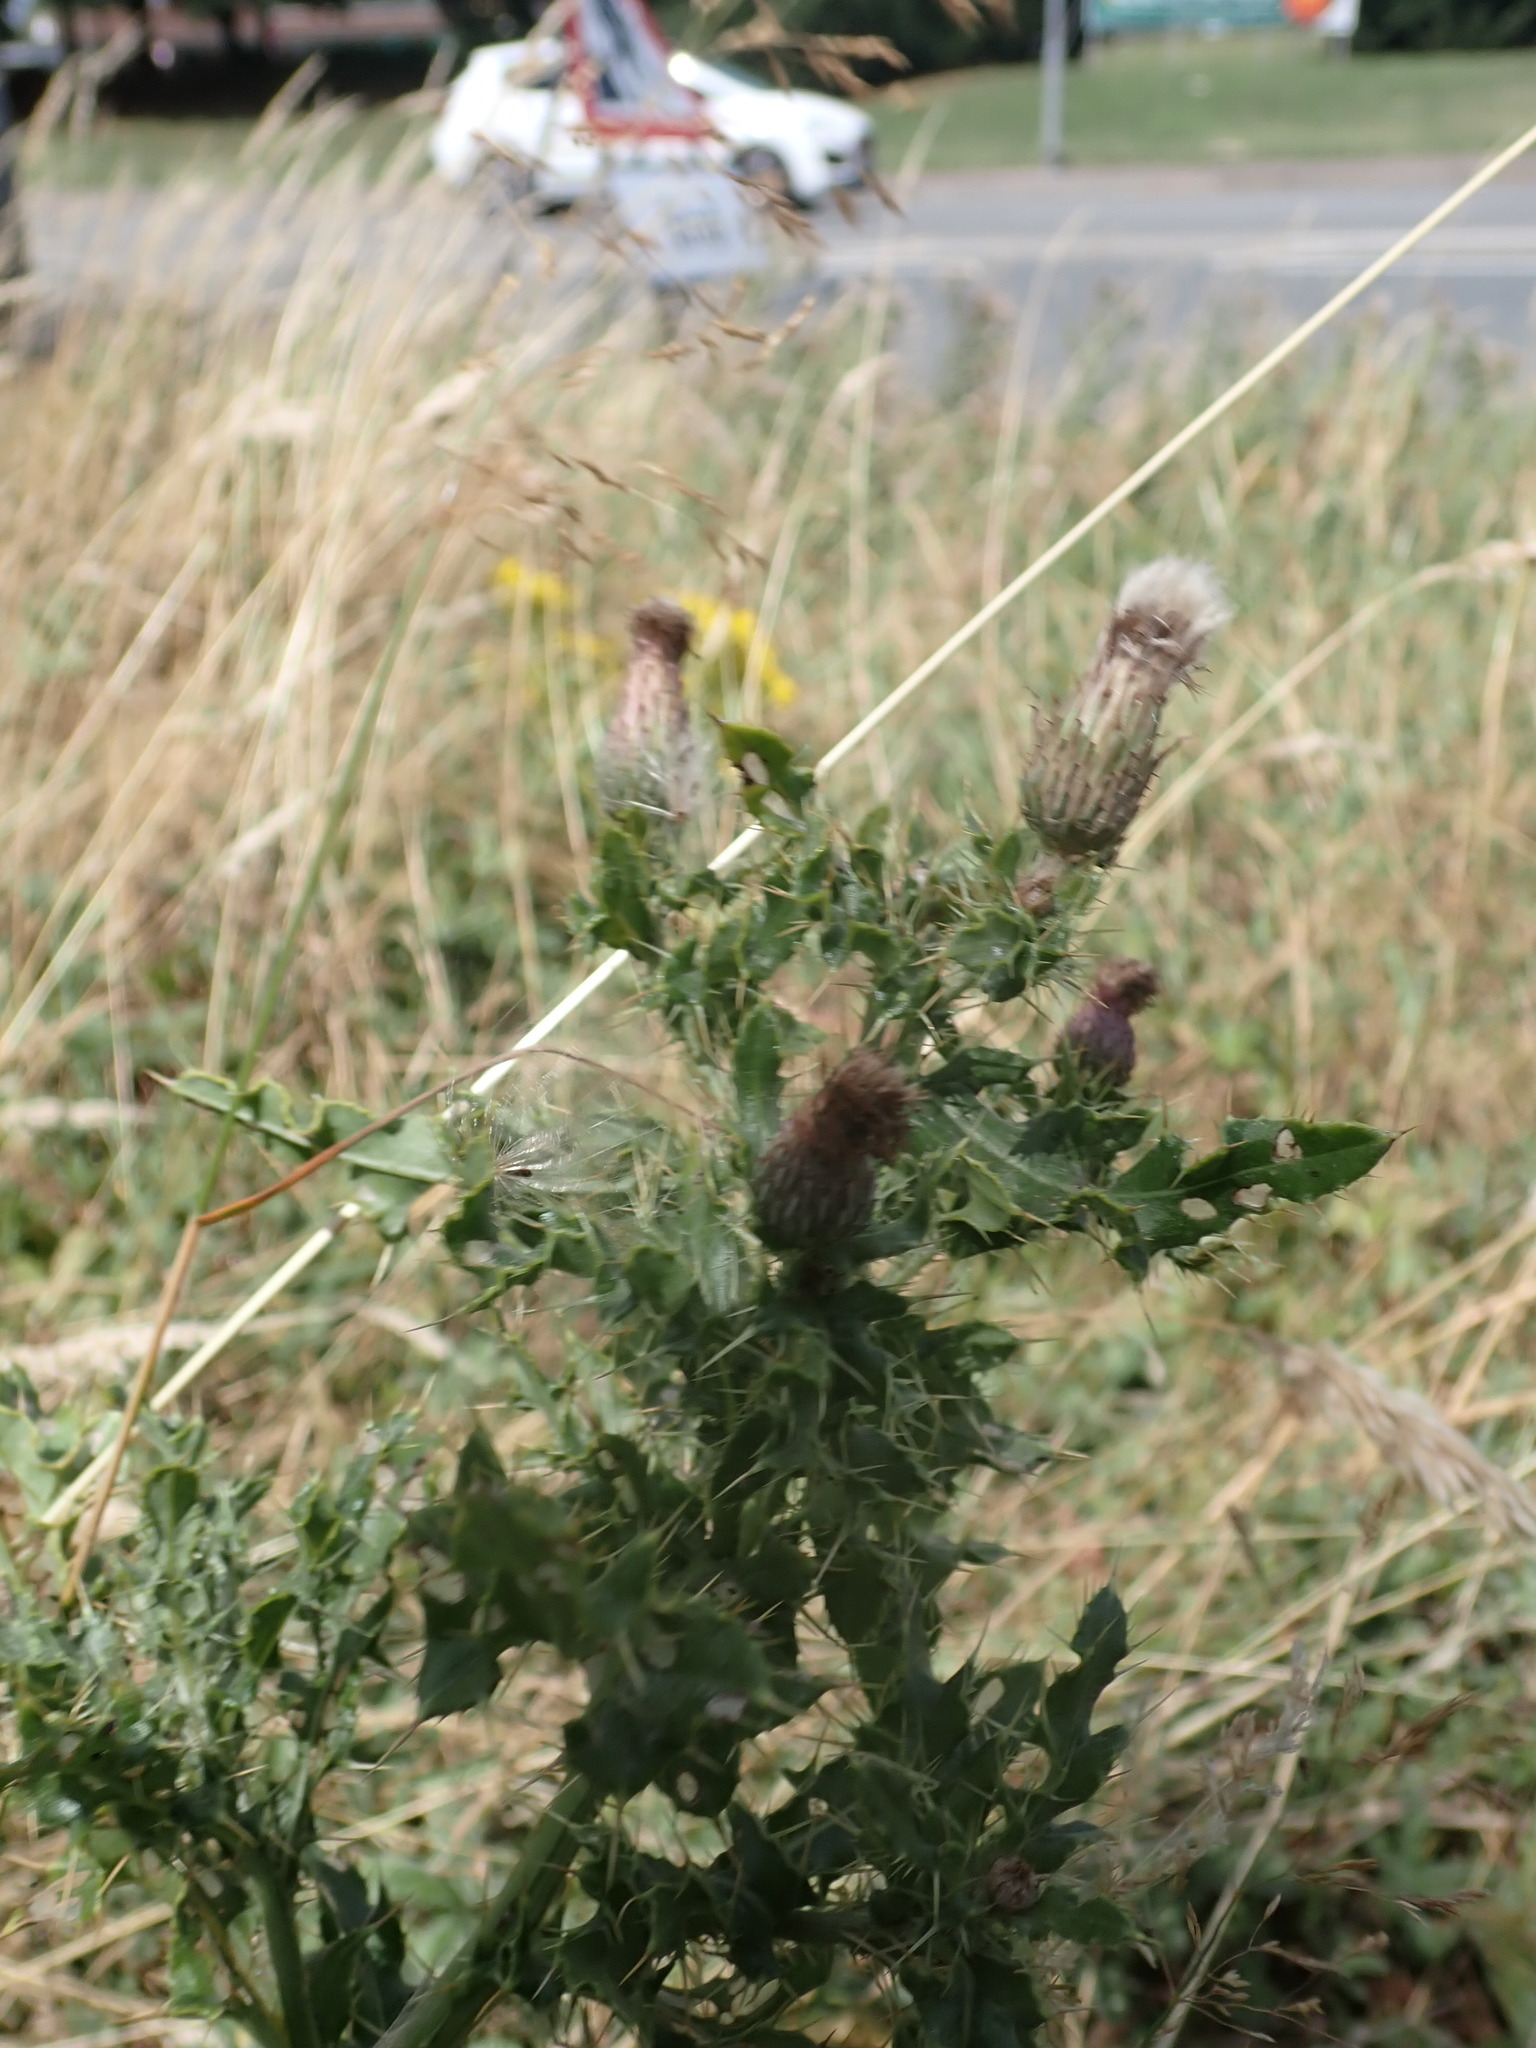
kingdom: Plantae
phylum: Tracheophyta
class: Magnoliopsida
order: Asterales
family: Asteraceae
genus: Cirsium
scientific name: Cirsium arvense
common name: Creeping thistle
